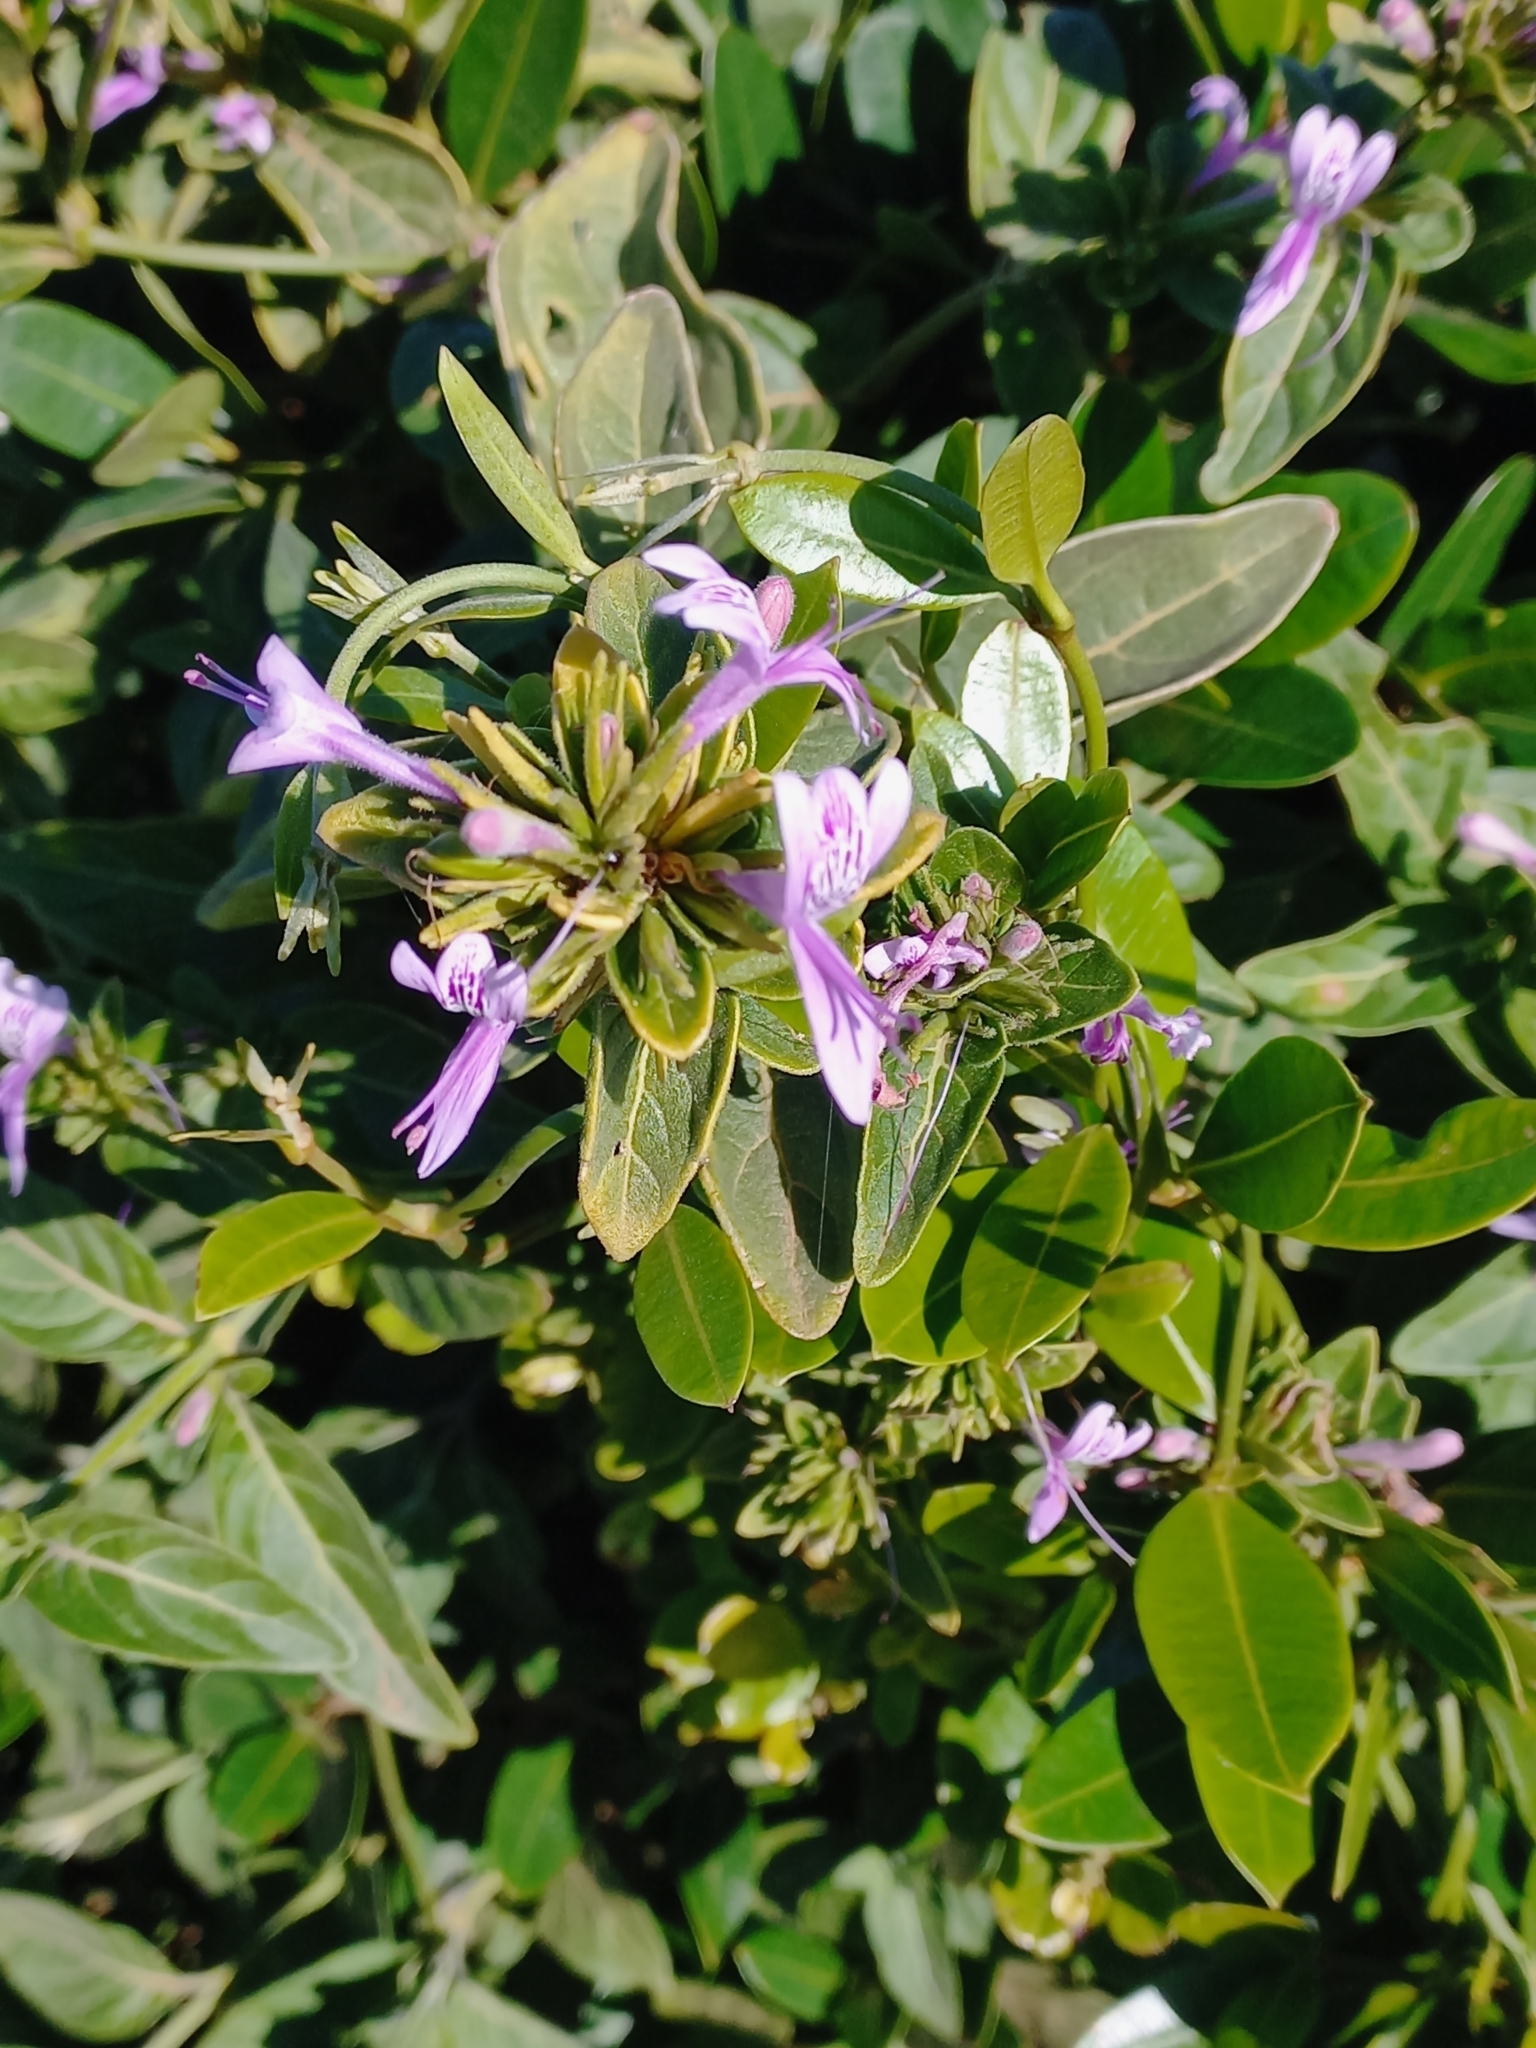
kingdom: Plantae
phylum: Tracheophyta
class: Magnoliopsida
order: Lamiales
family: Acanthaceae
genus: Hypoestes
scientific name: Hypoestes aristata
